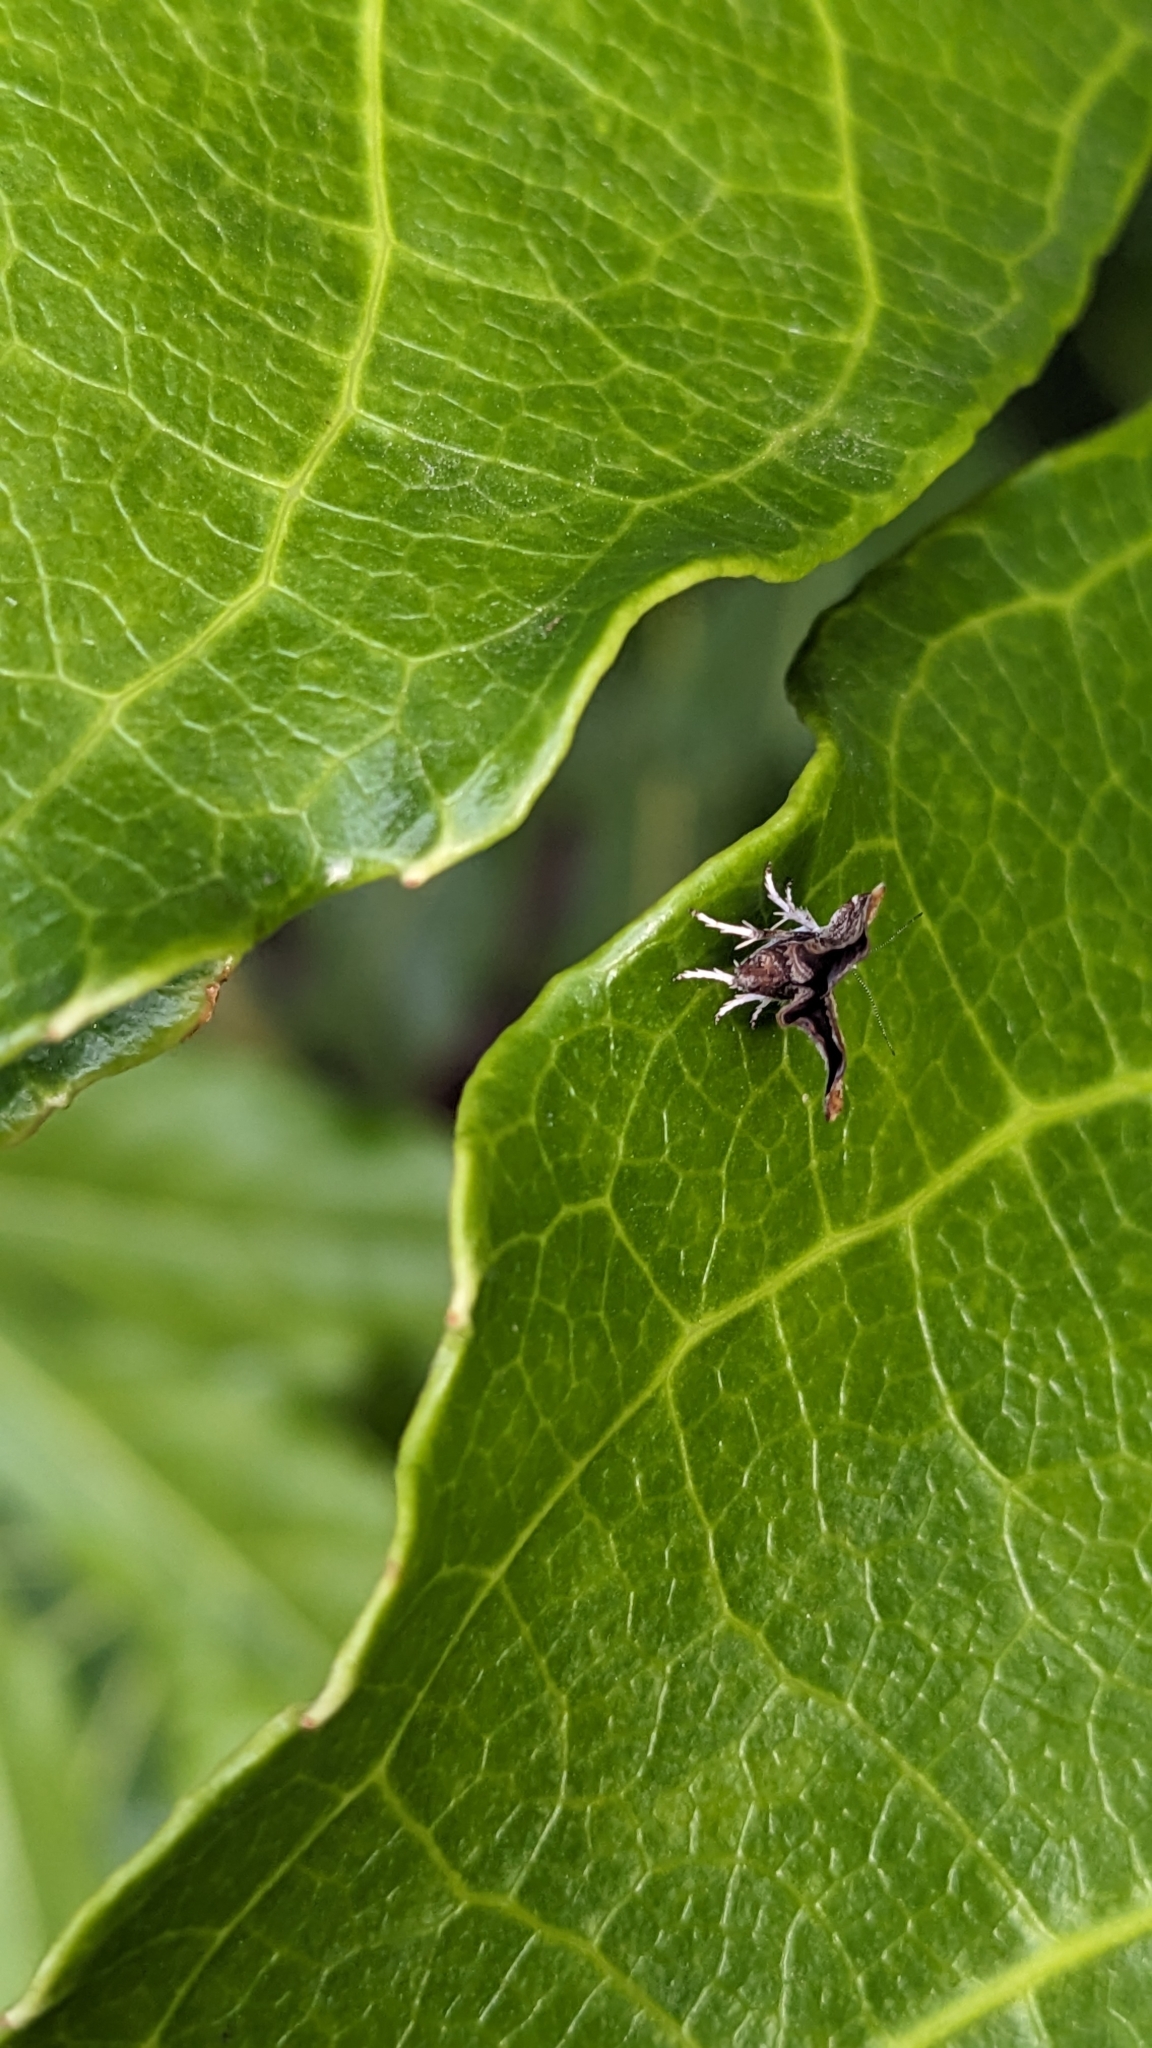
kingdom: Animalia
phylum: Arthropoda
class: Insecta
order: Lepidoptera
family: Choreutidae
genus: Anthophila
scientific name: Anthophila nemorana
